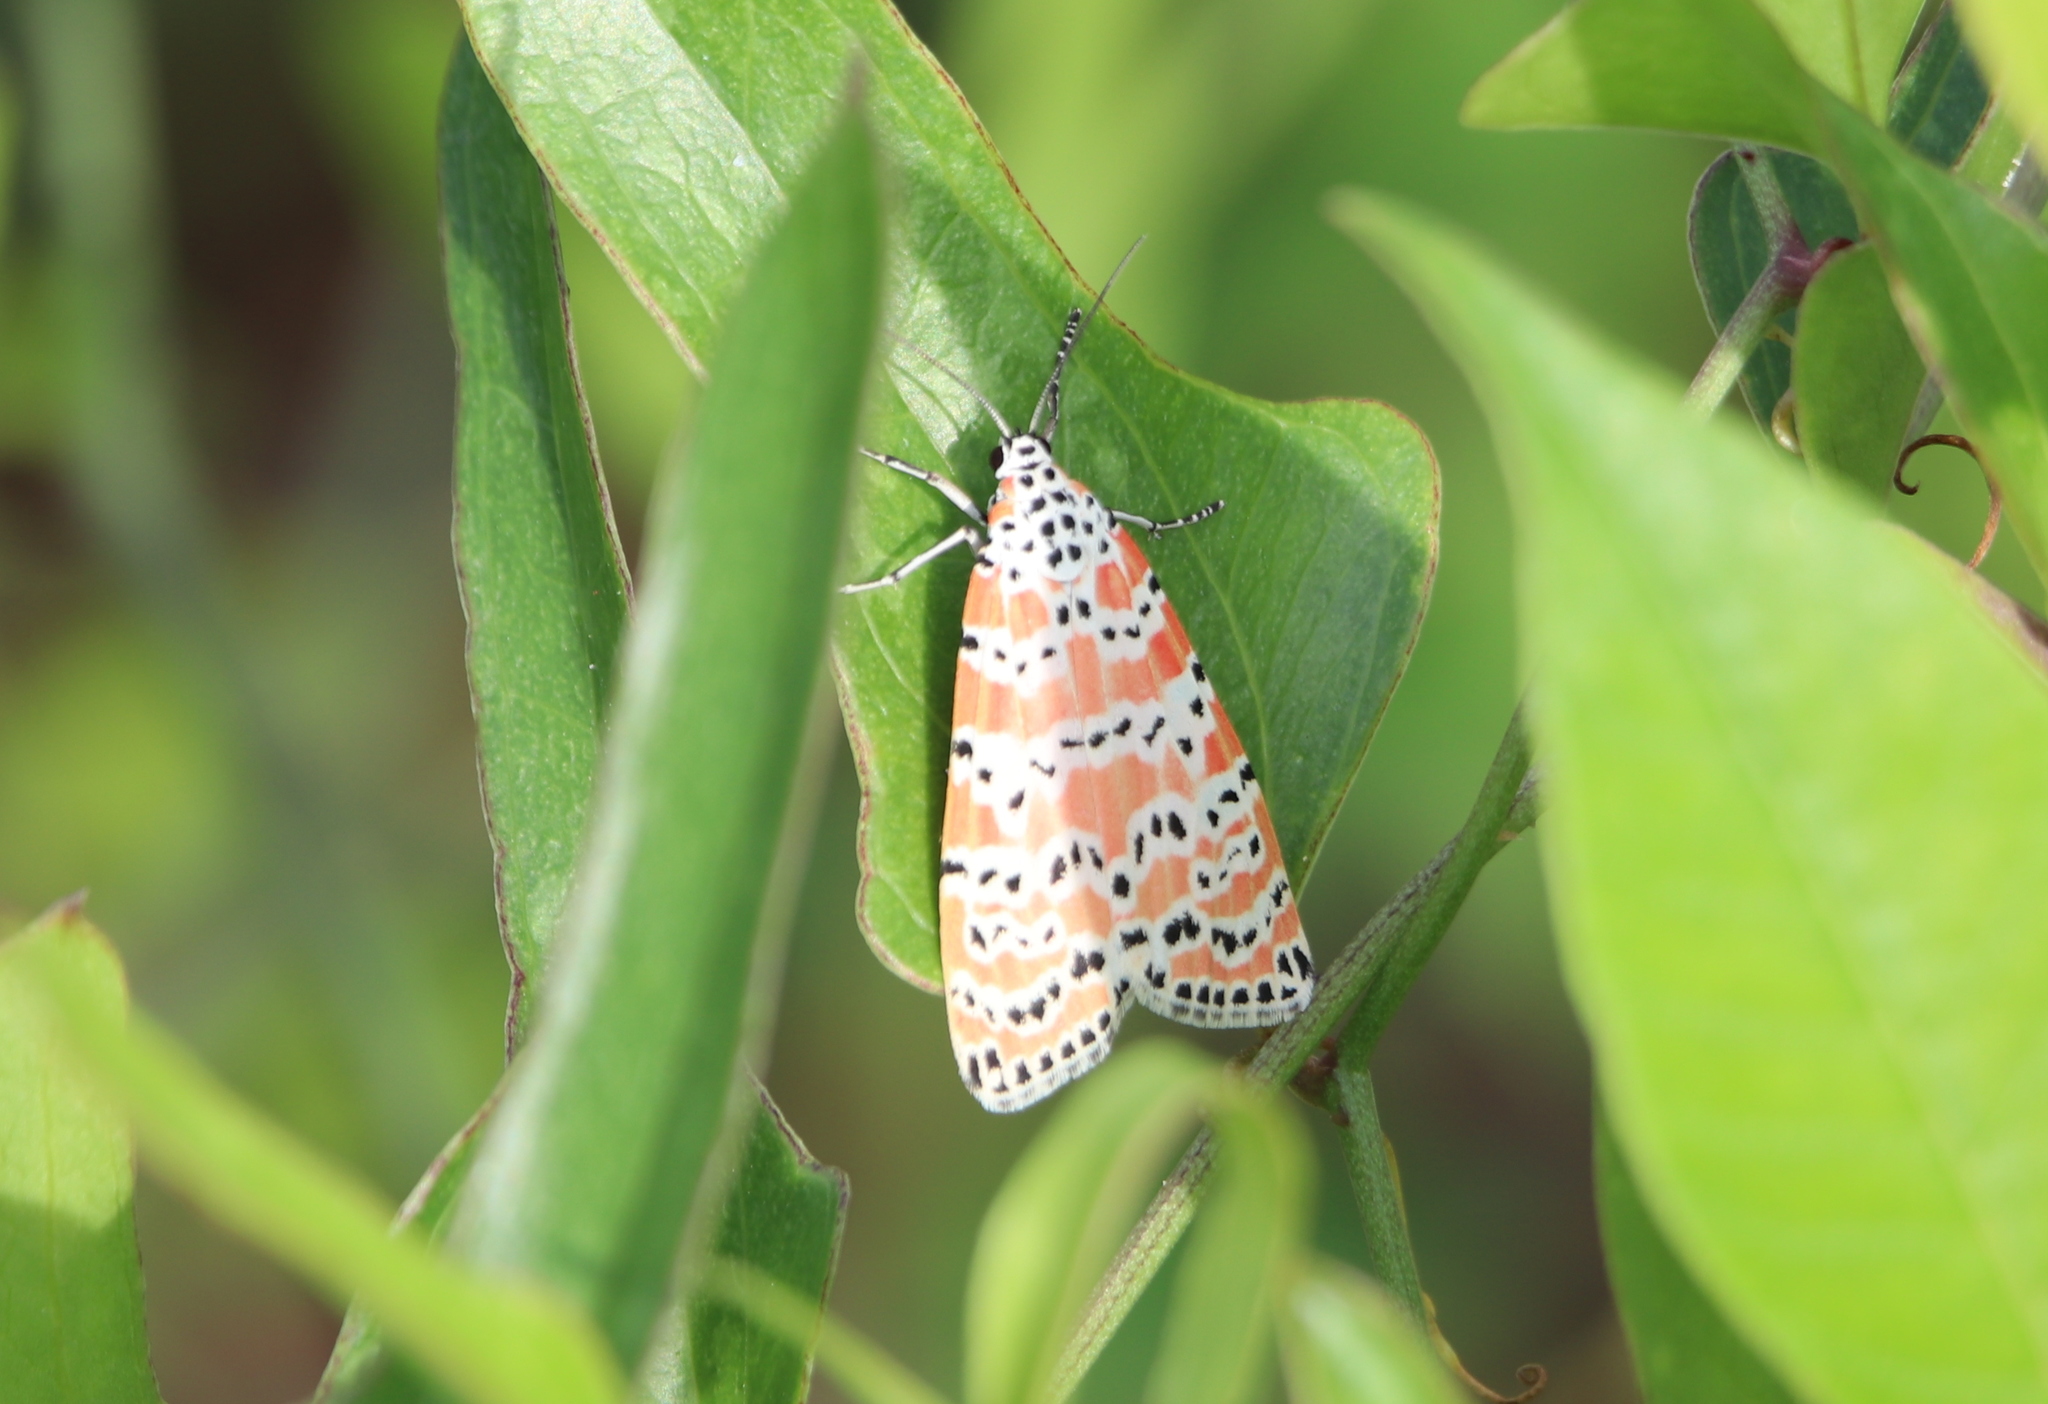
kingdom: Animalia
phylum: Arthropoda
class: Insecta
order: Lepidoptera
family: Erebidae
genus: Utetheisa
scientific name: Utetheisa ornatrix
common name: Beautiful utetheisa
